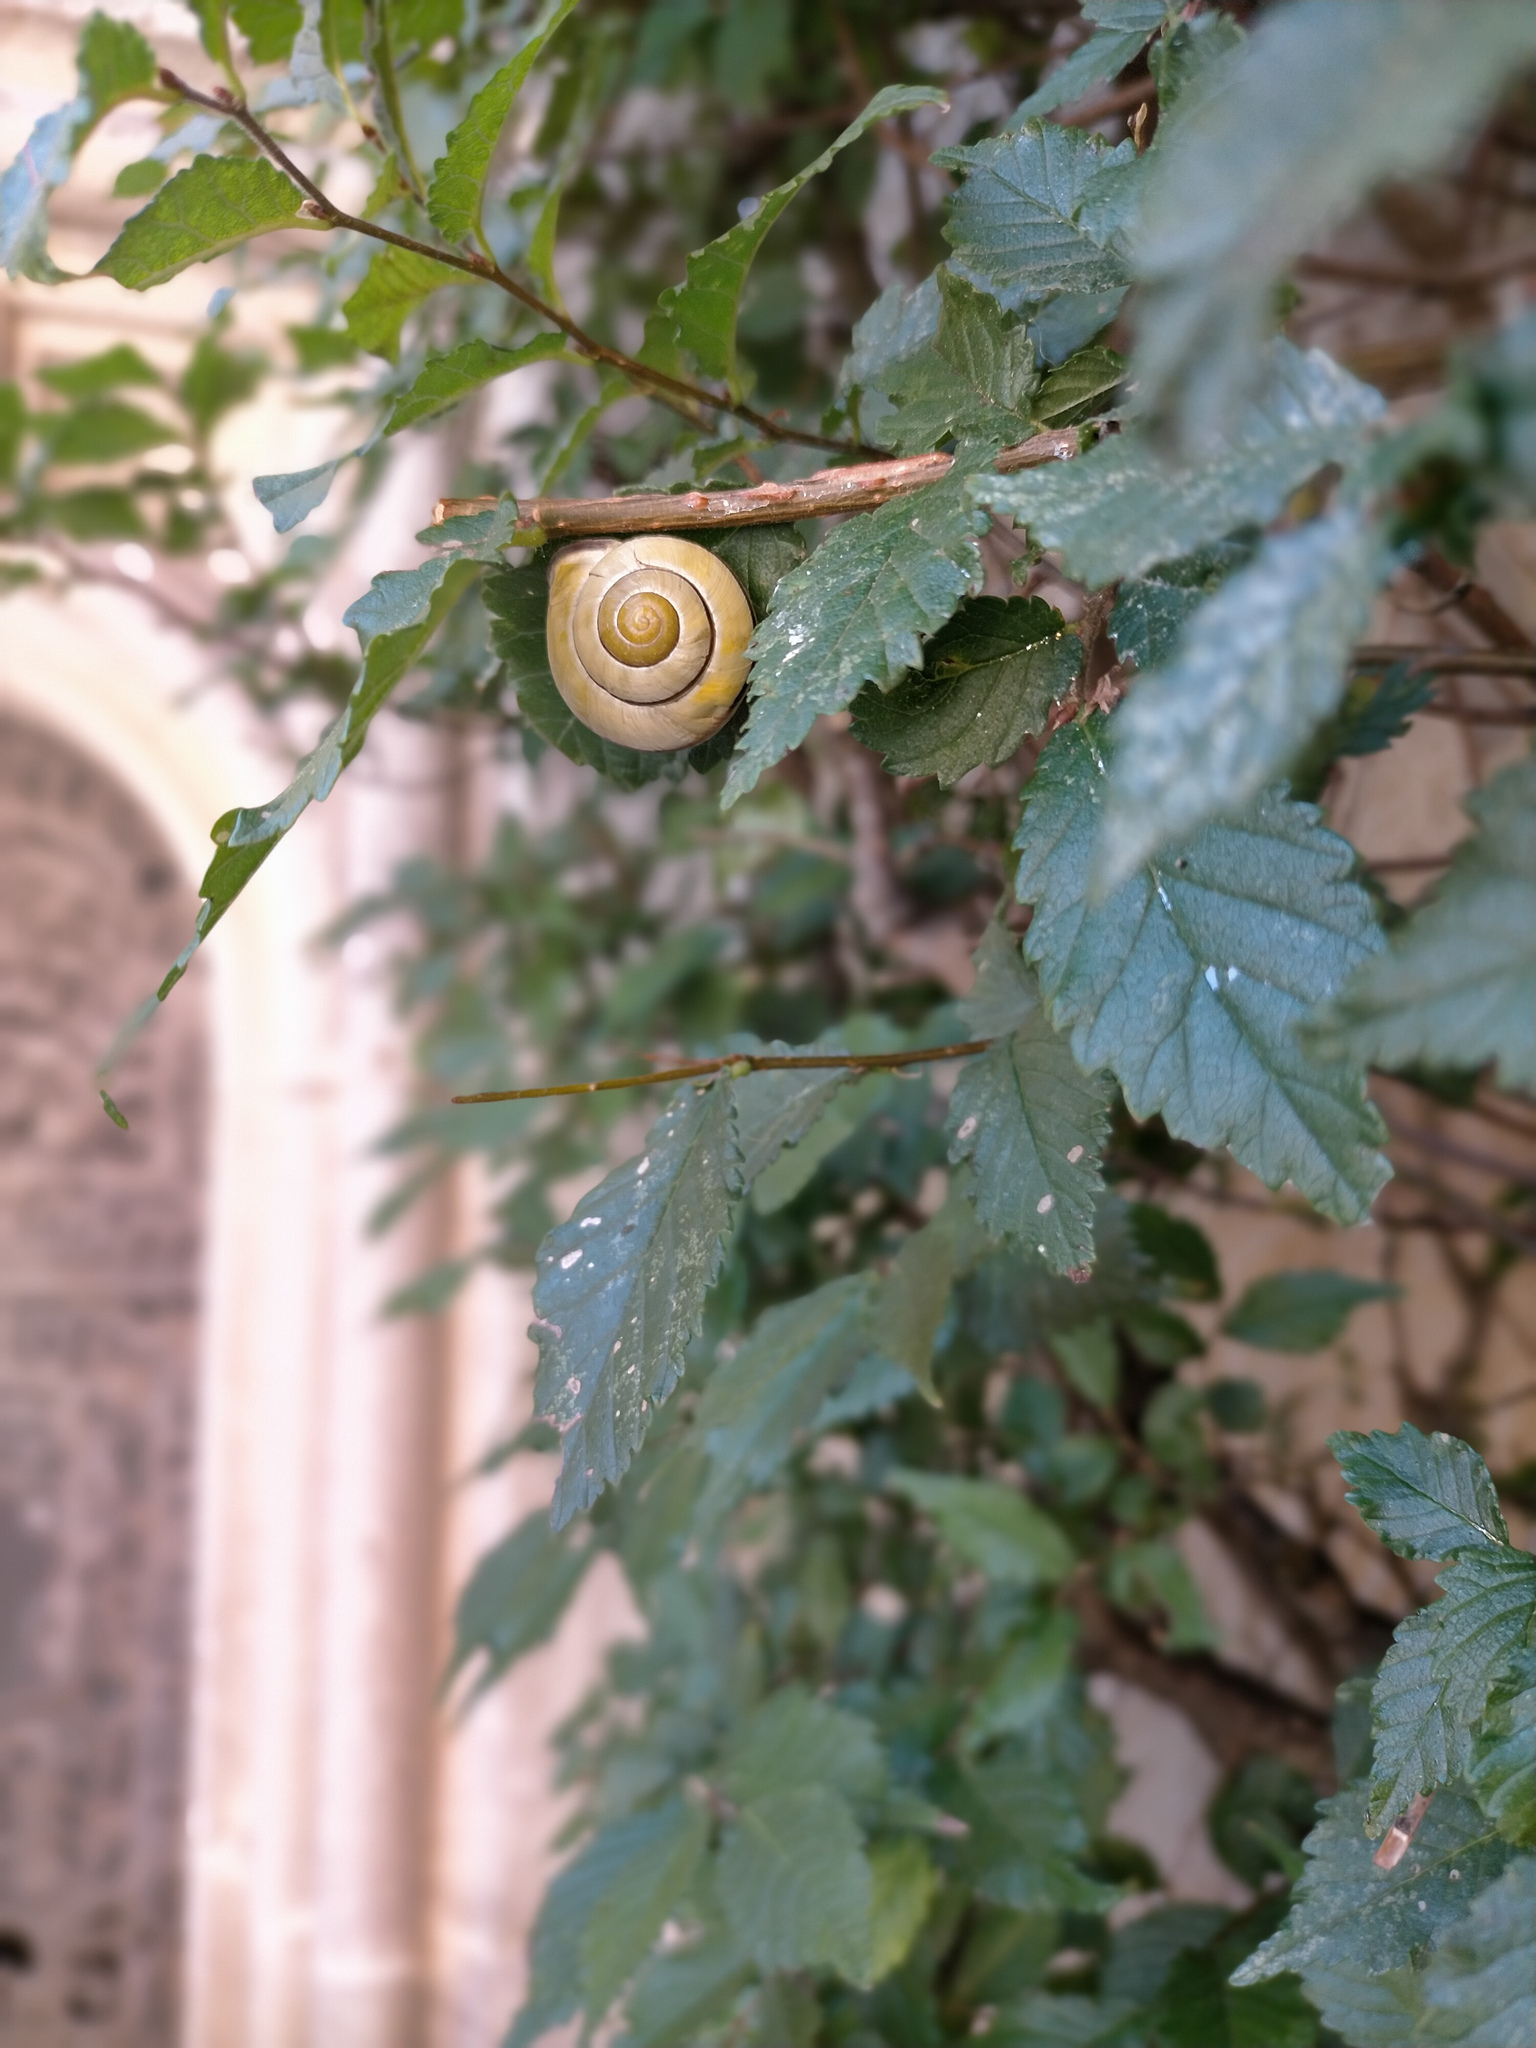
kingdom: Animalia
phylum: Mollusca
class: Gastropoda
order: Stylommatophora
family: Helicidae
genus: Cepaea
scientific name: Cepaea nemoralis
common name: Grovesnail
